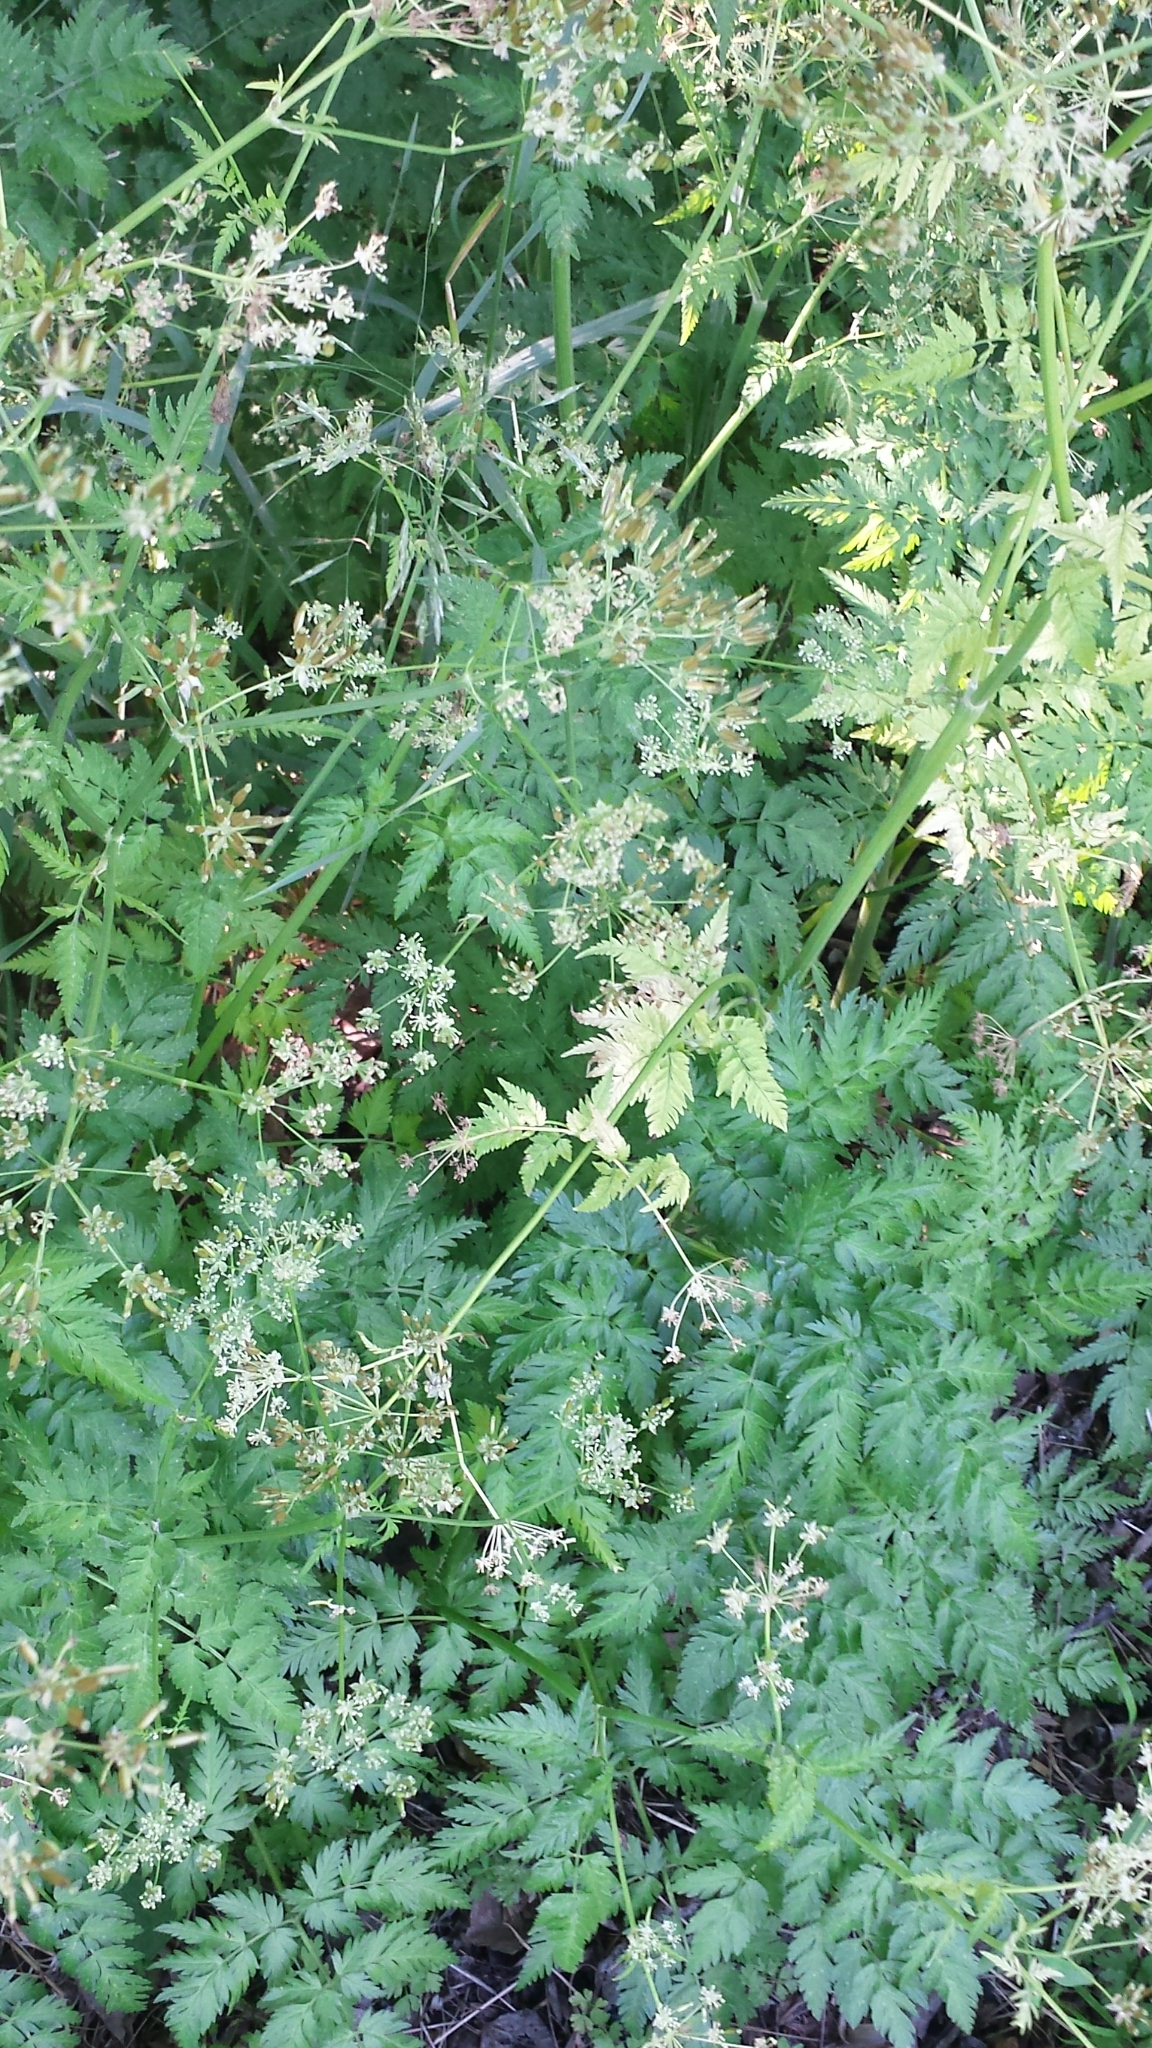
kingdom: Plantae
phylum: Tracheophyta
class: Magnoliopsida
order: Apiales
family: Apiaceae
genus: Anthriscus
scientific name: Anthriscus sylvestris
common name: Cow parsley
